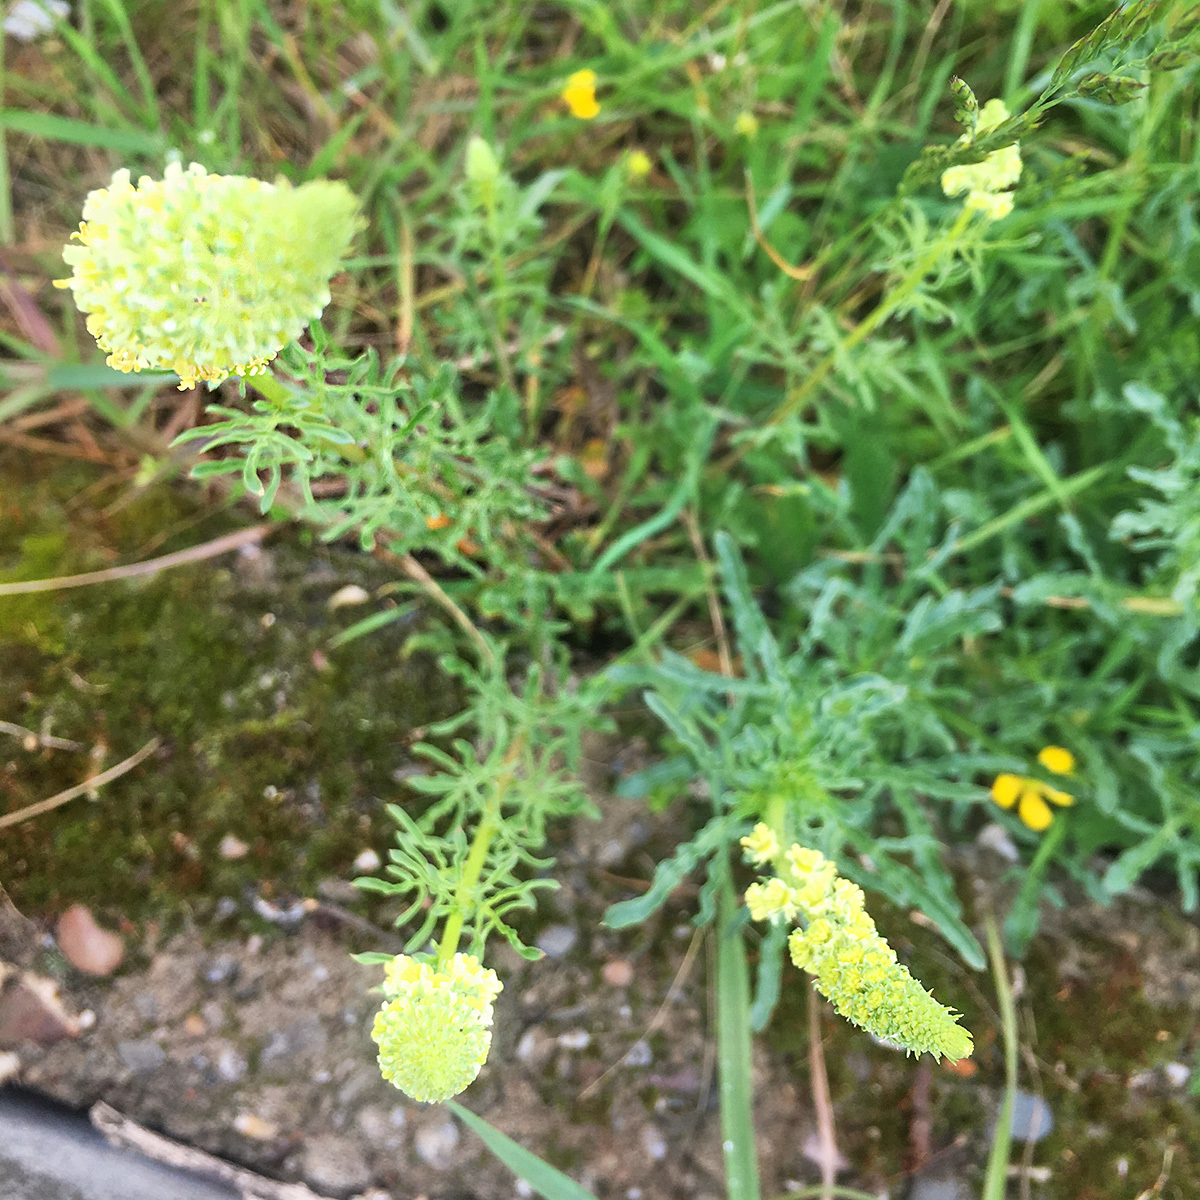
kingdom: Plantae
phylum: Tracheophyta
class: Magnoliopsida
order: Brassicales
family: Resedaceae
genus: Reseda
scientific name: Reseda lutea
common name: Wild mignonette
